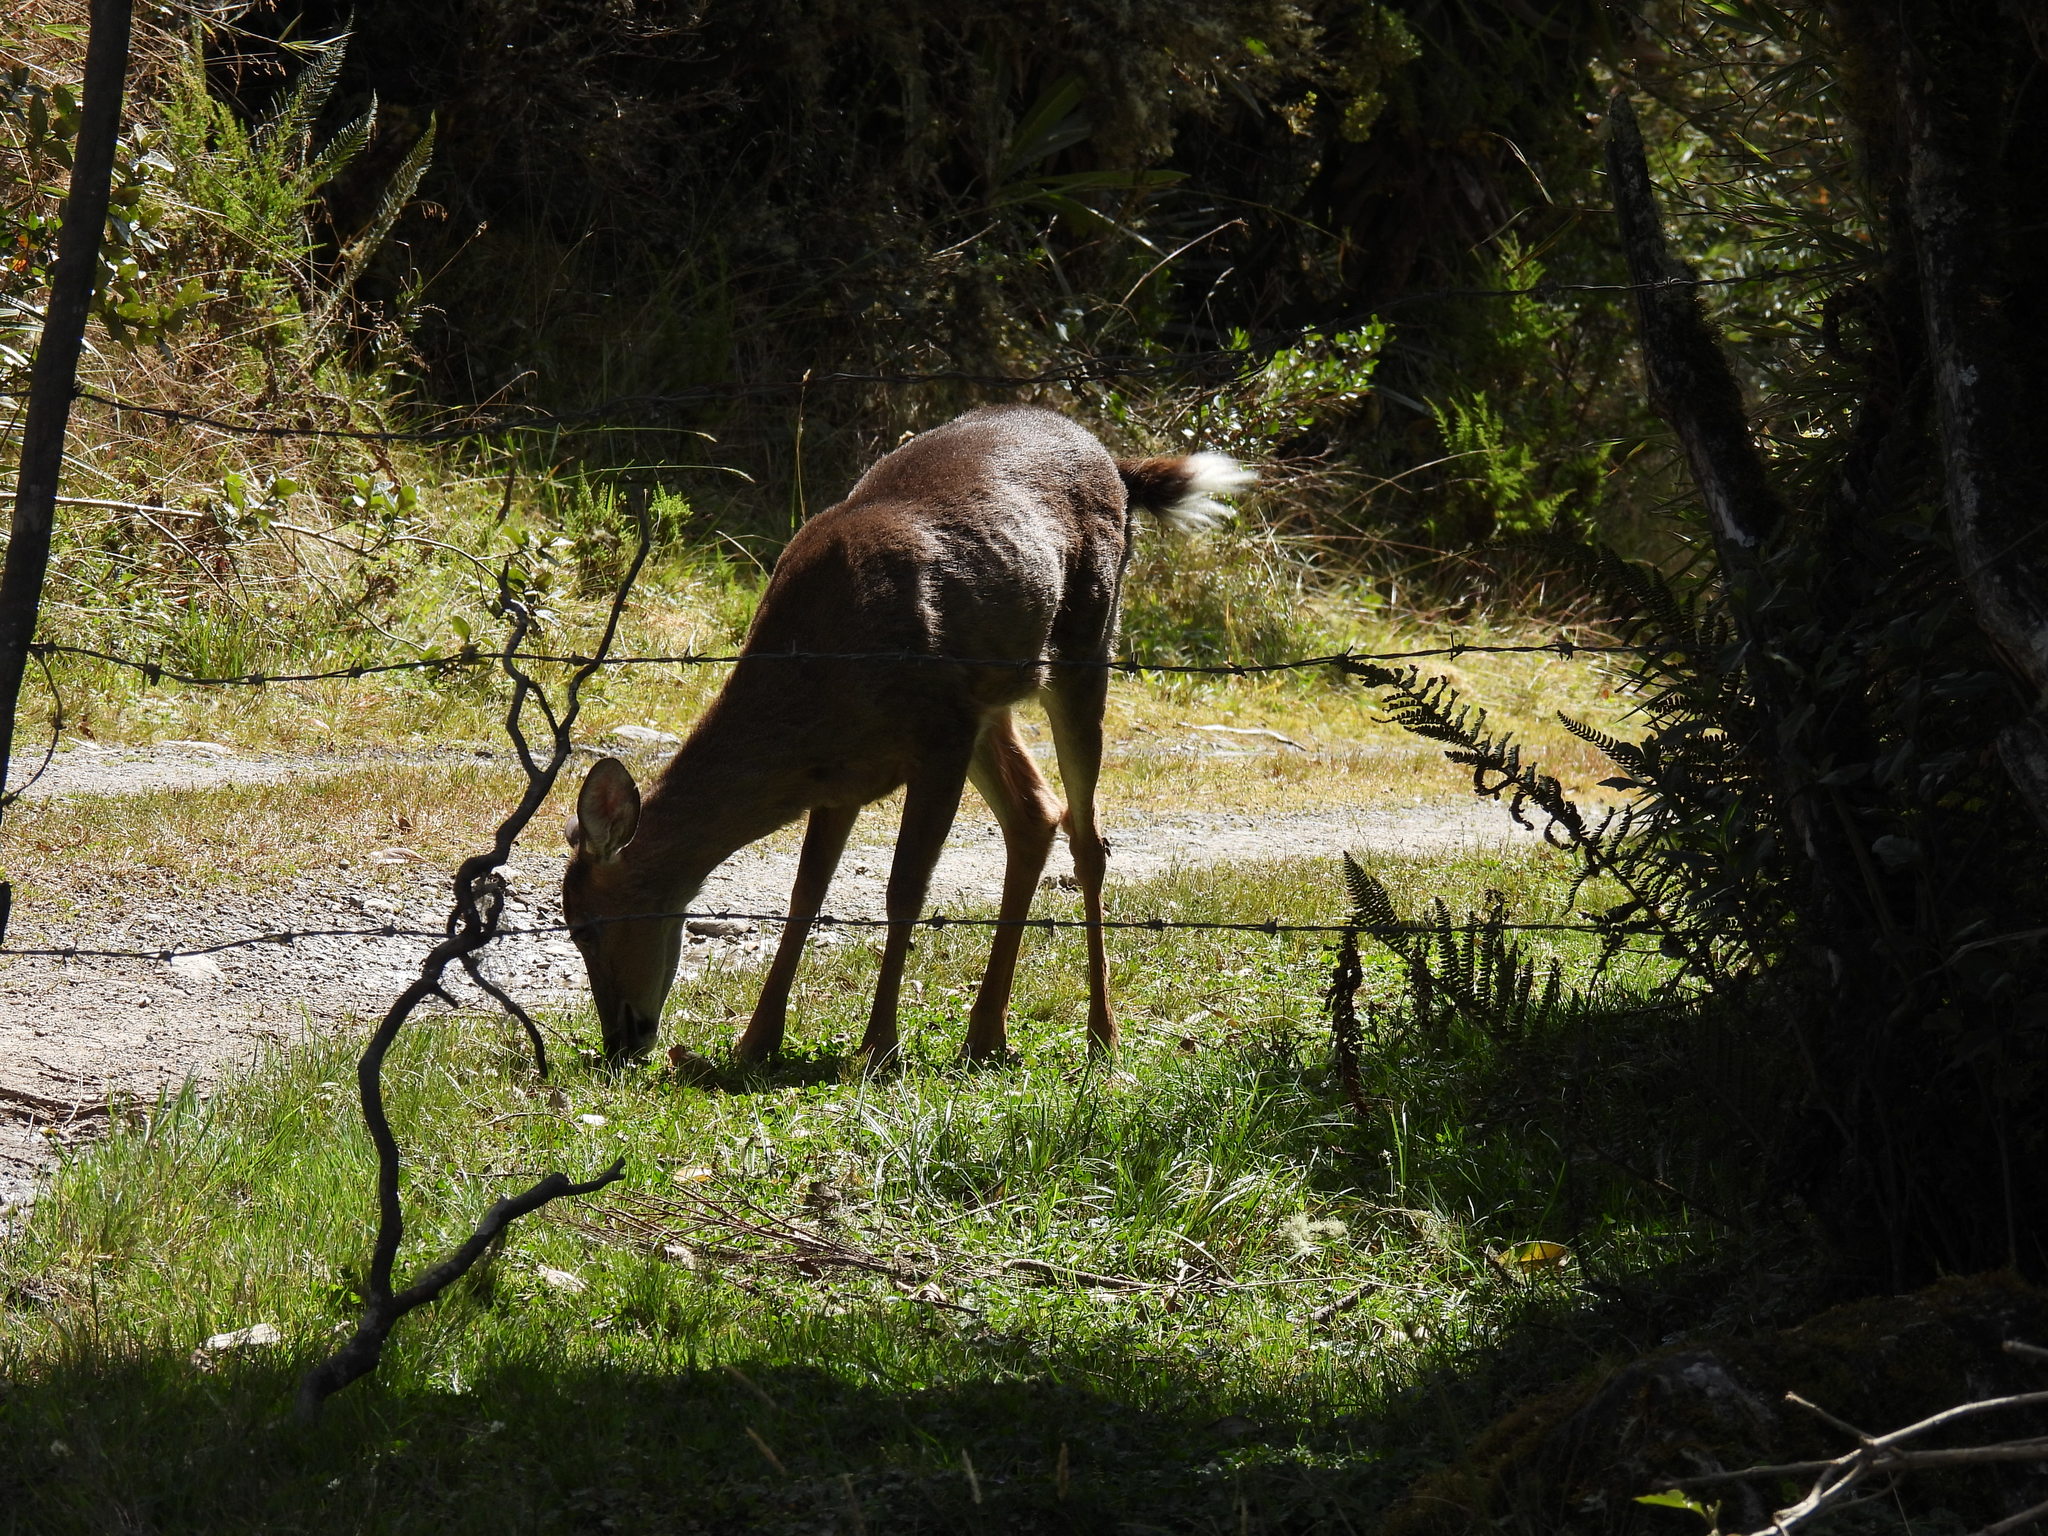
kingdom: Animalia
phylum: Chordata
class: Mammalia
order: Artiodactyla
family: Cervidae
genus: Odocoileus
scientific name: Odocoileus virginianus
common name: White-tailed deer
